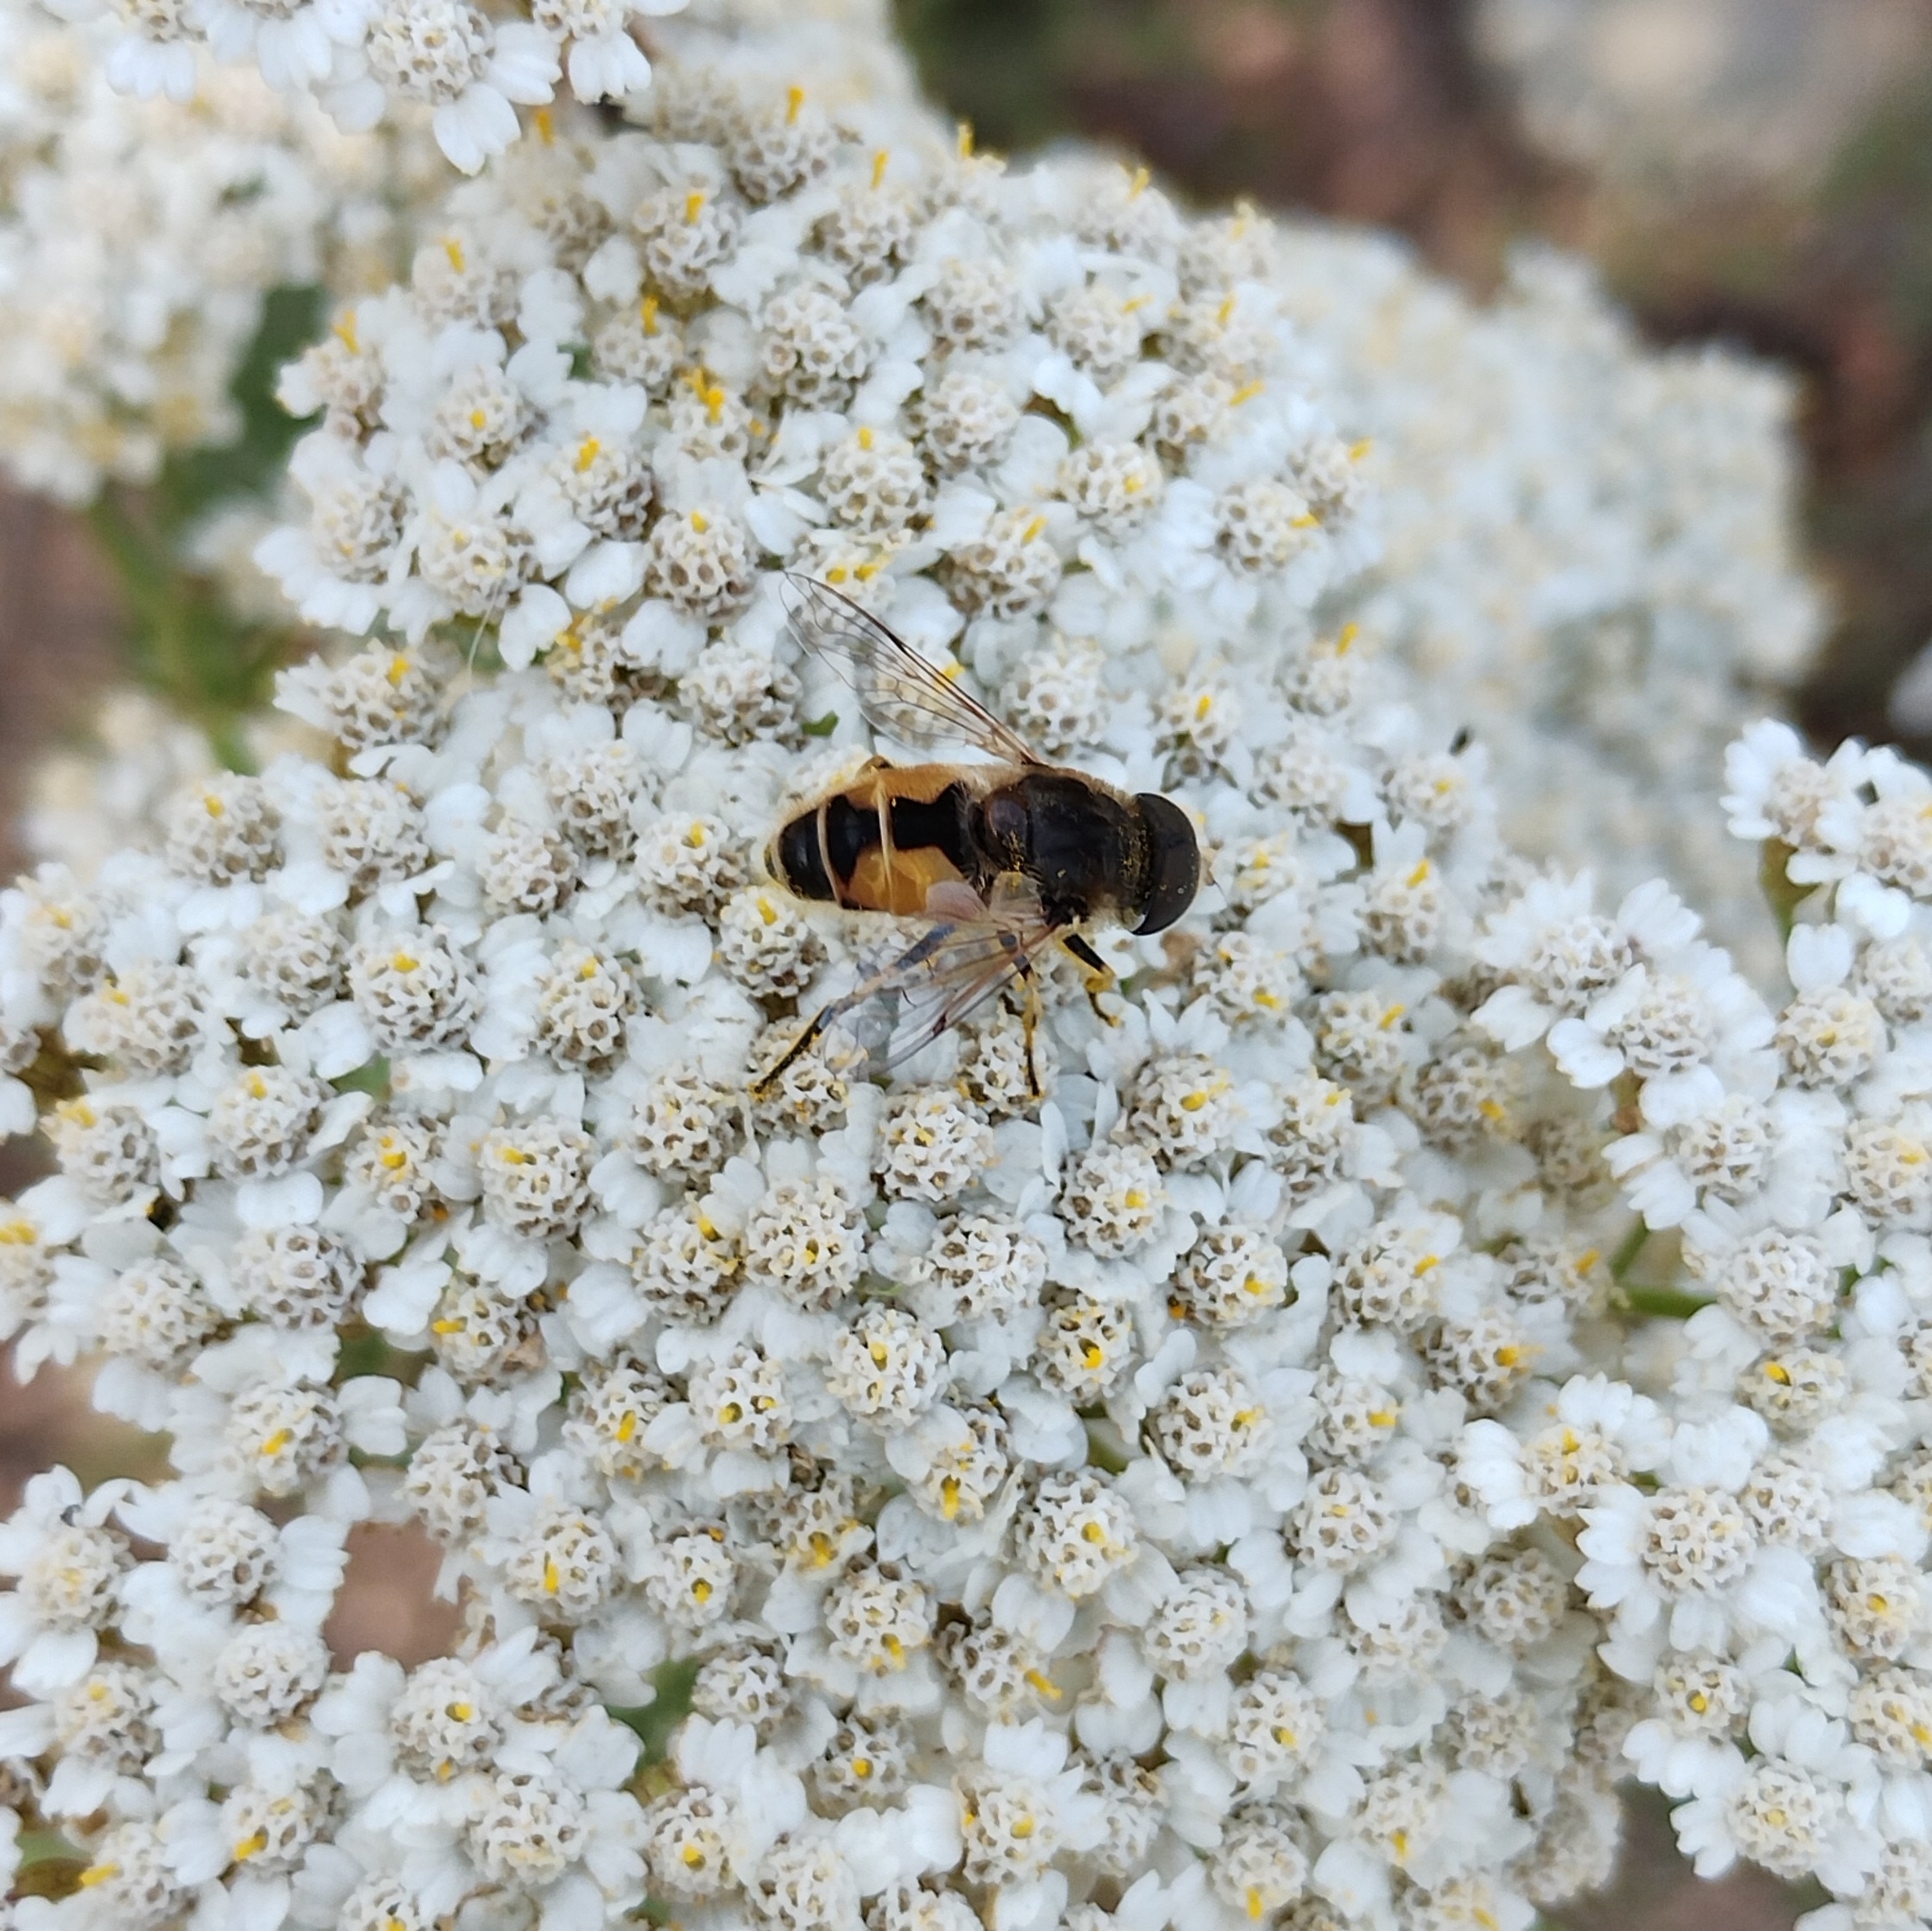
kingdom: Animalia
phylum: Arthropoda
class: Insecta
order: Diptera
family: Syrphidae
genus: Eristalis
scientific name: Eristalis arbustorum
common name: Hover fly
